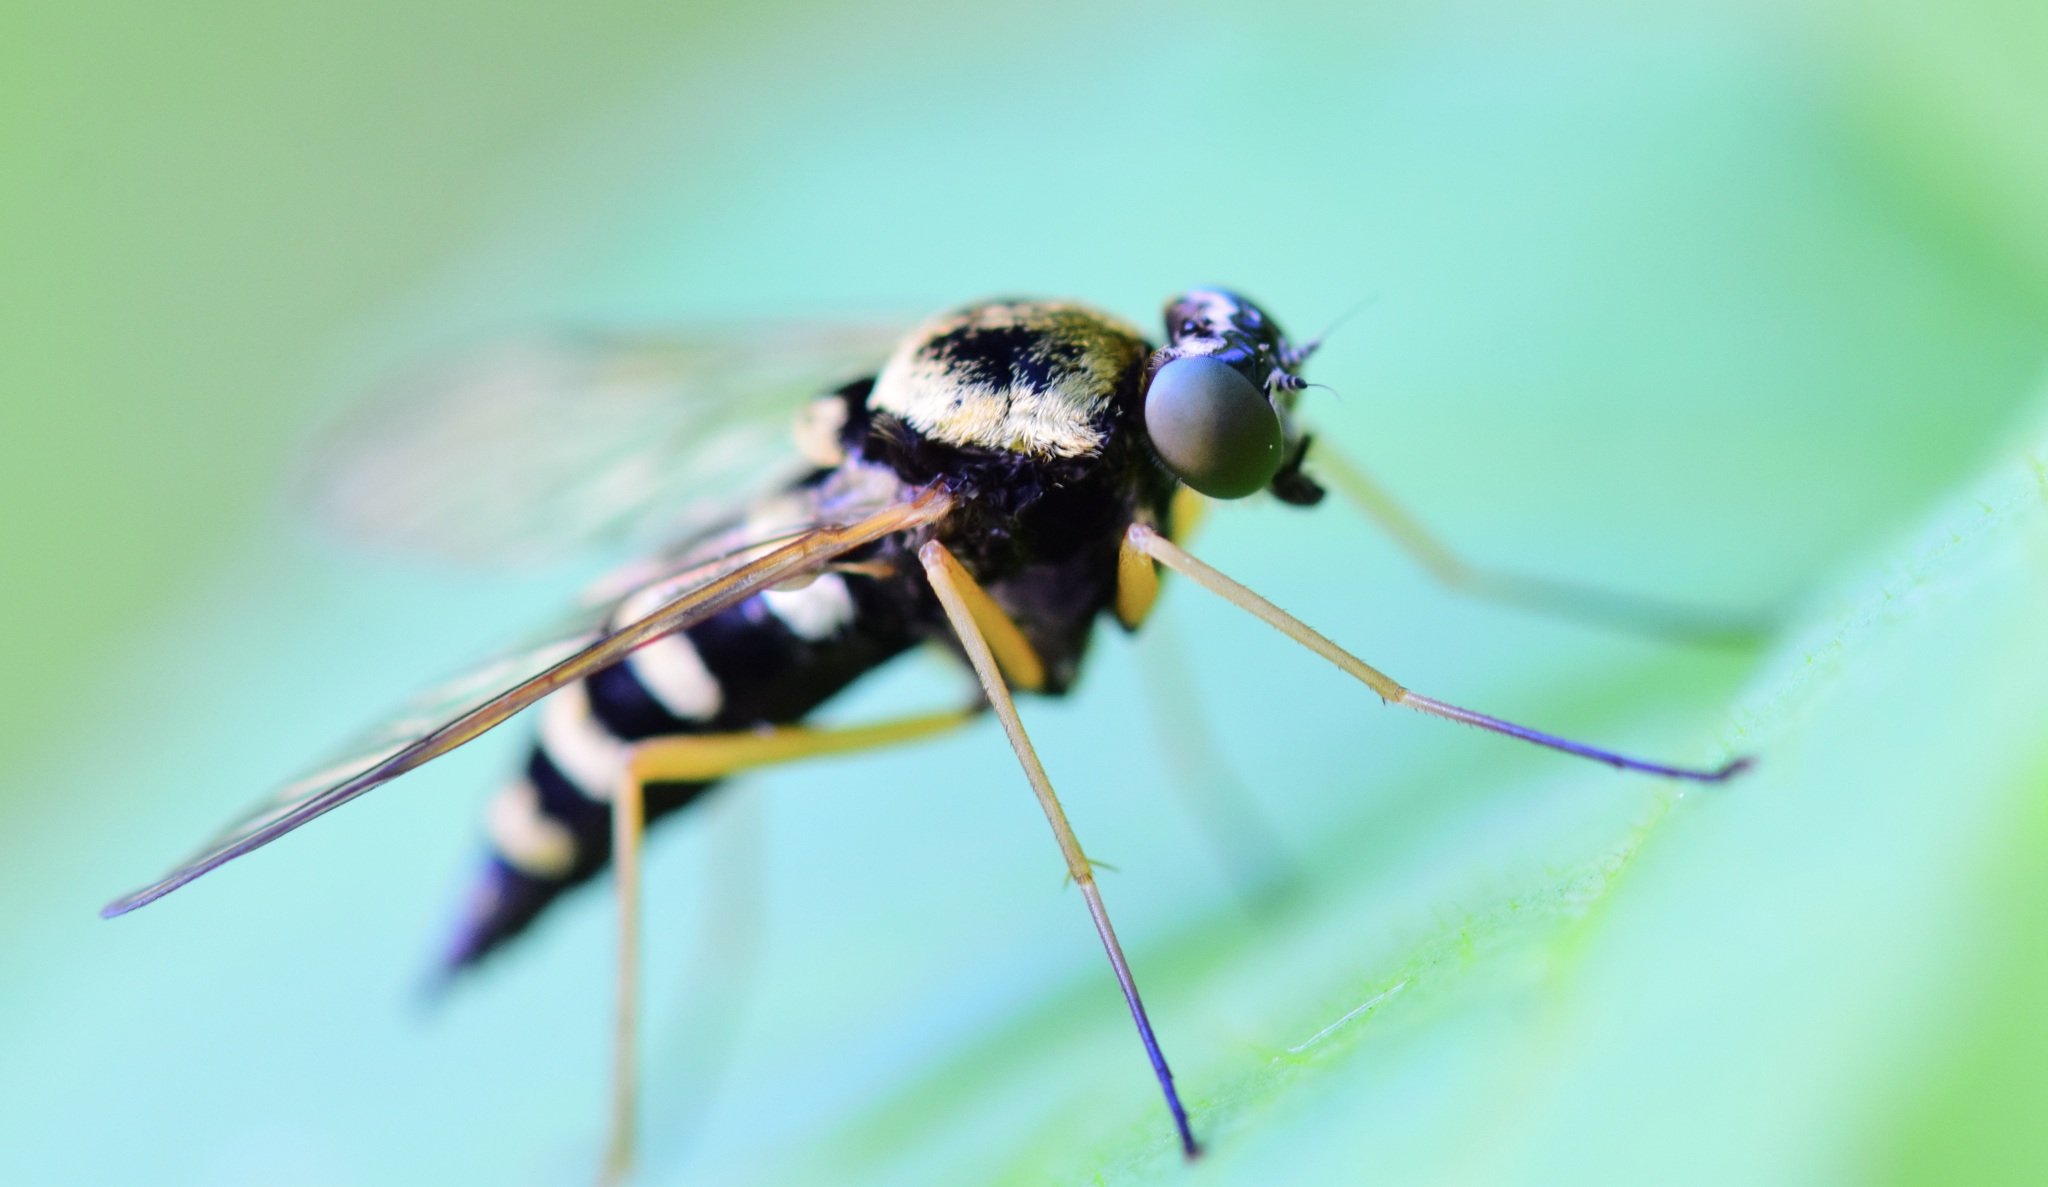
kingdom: Animalia
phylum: Arthropoda
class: Insecta
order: Diptera
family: Rhagionidae
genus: Chrysopilus
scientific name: Chrysopilus ornatus
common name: Ornate snipe fly
